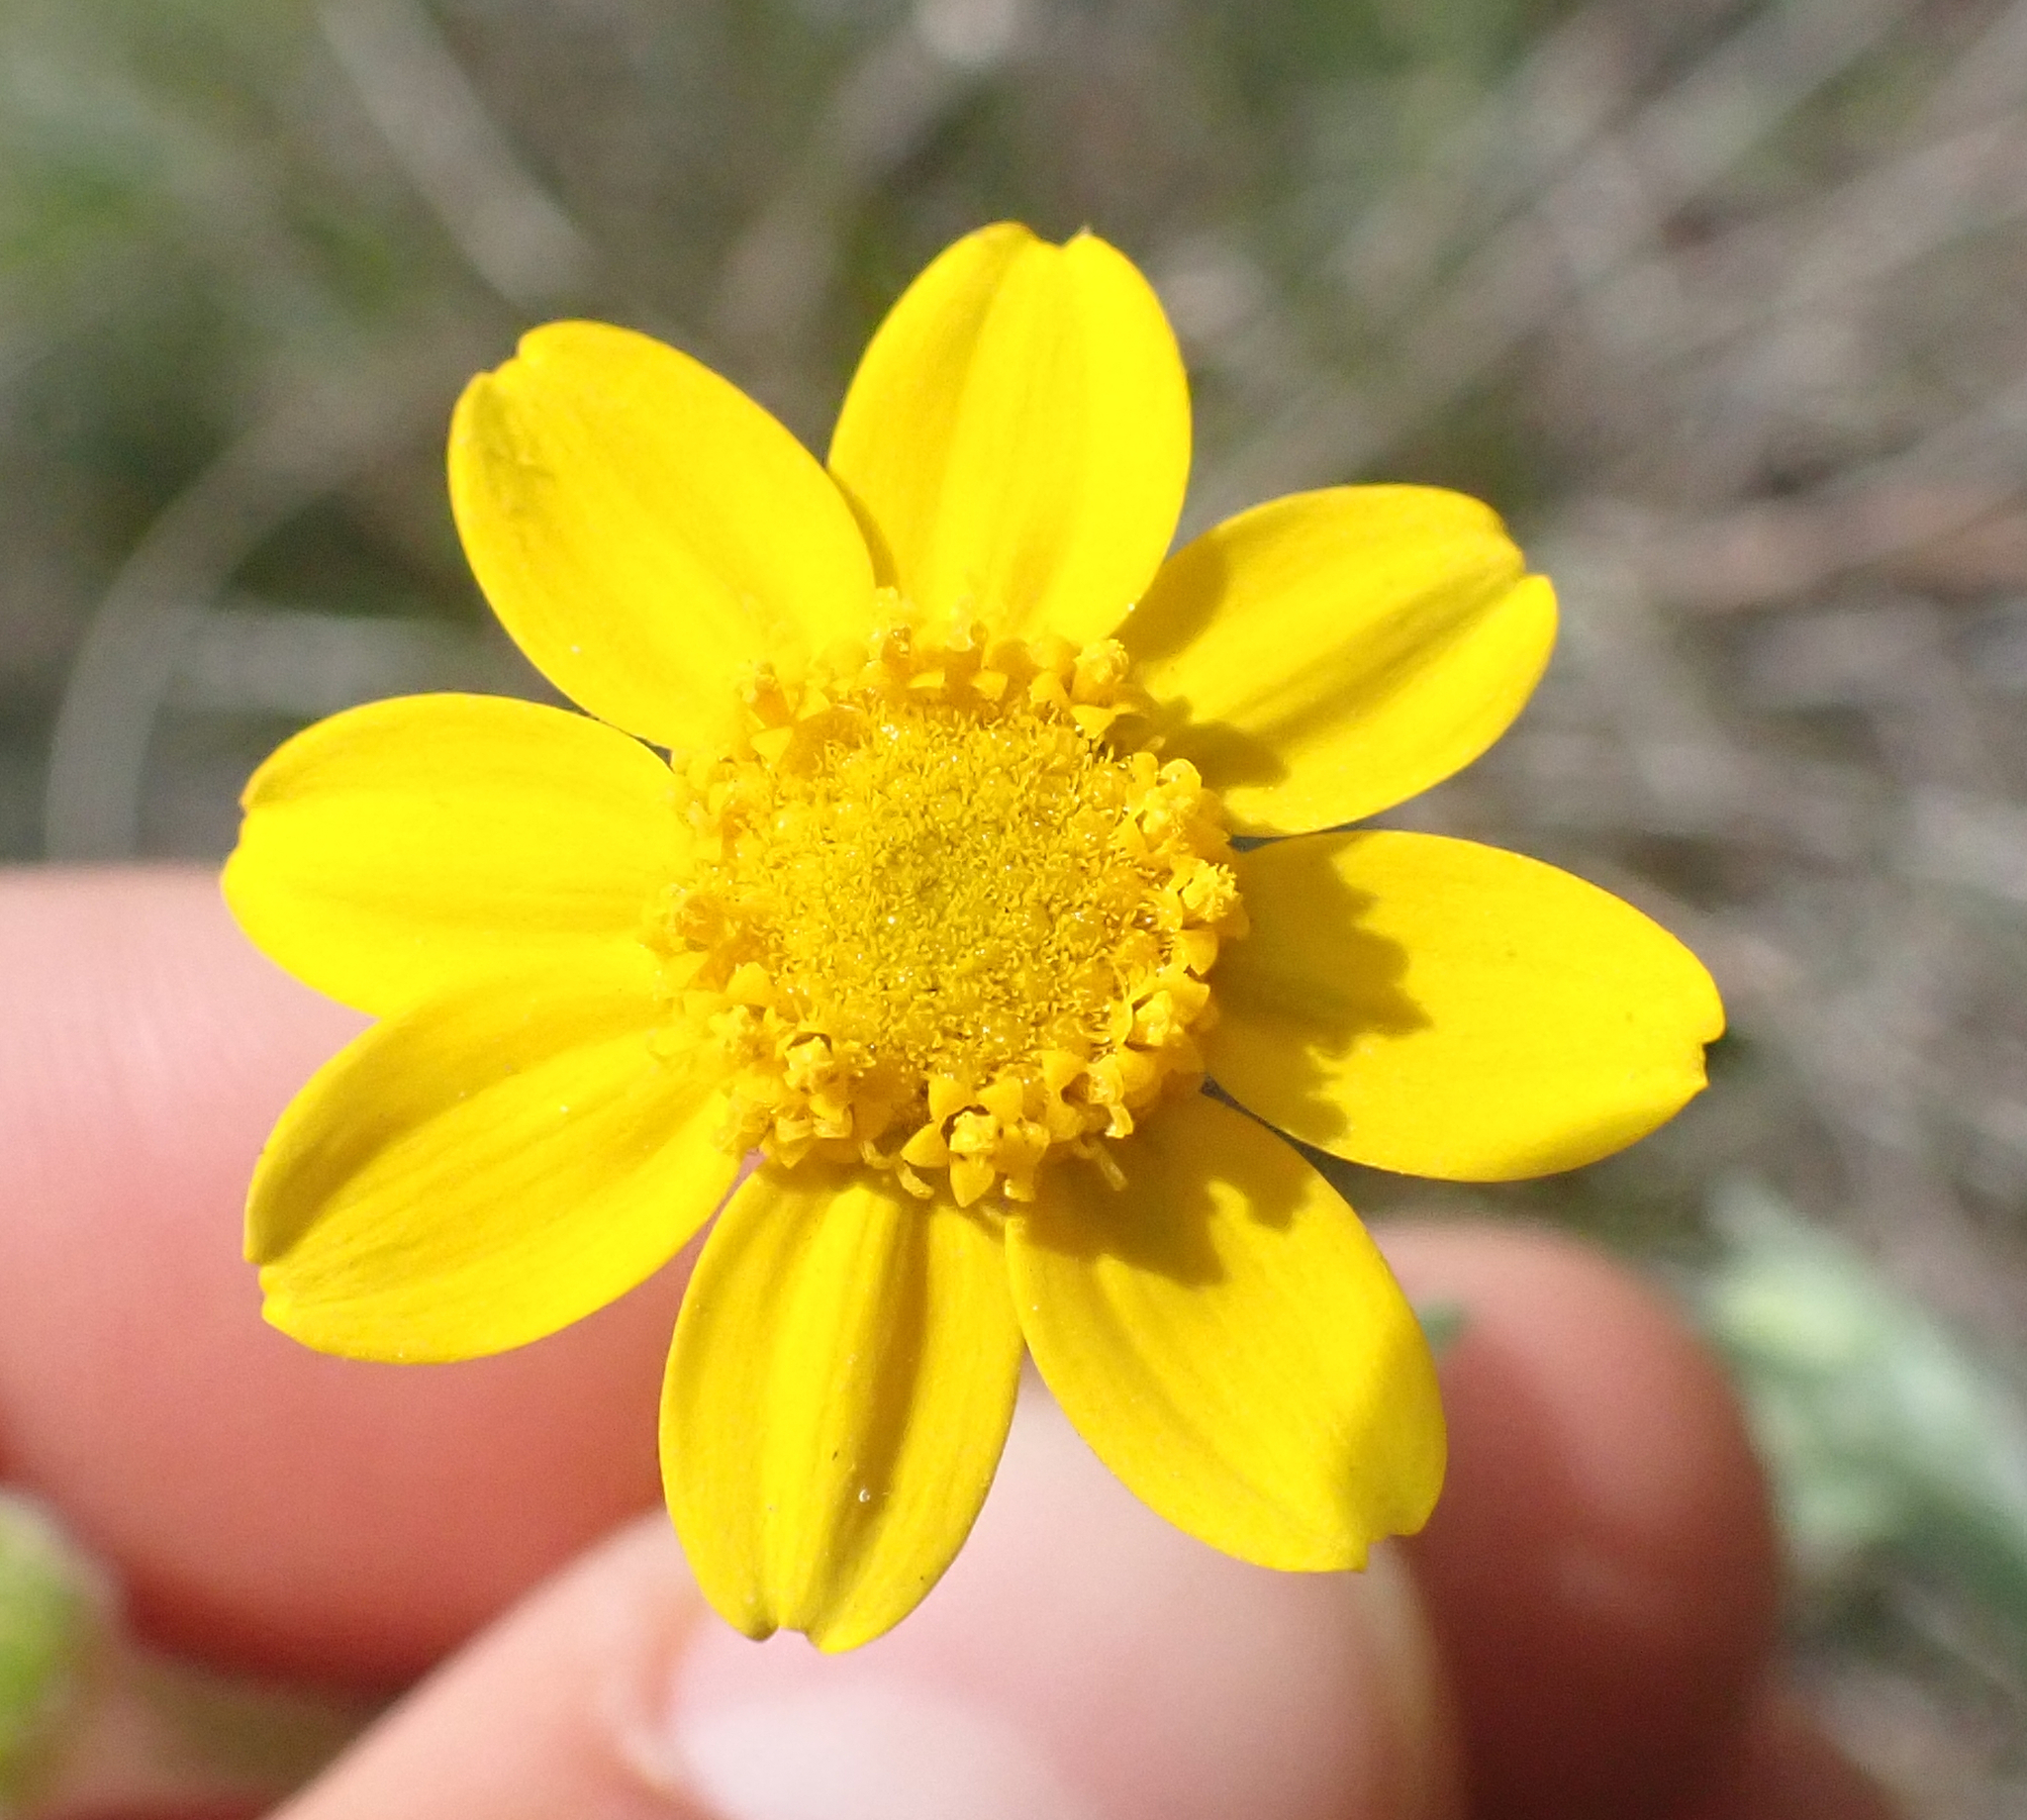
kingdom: Plantae
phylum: Tracheophyta
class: Magnoliopsida
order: Asterales
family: Asteraceae
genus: Monolopia
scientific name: Monolopia gracilens
